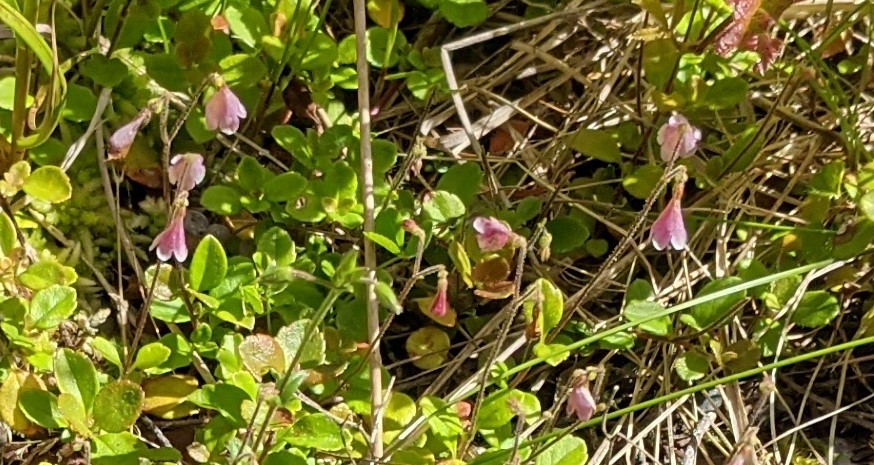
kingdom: Plantae
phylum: Tracheophyta
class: Magnoliopsida
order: Dipsacales
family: Caprifoliaceae
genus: Linnaea
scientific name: Linnaea borealis
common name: Twinflower
